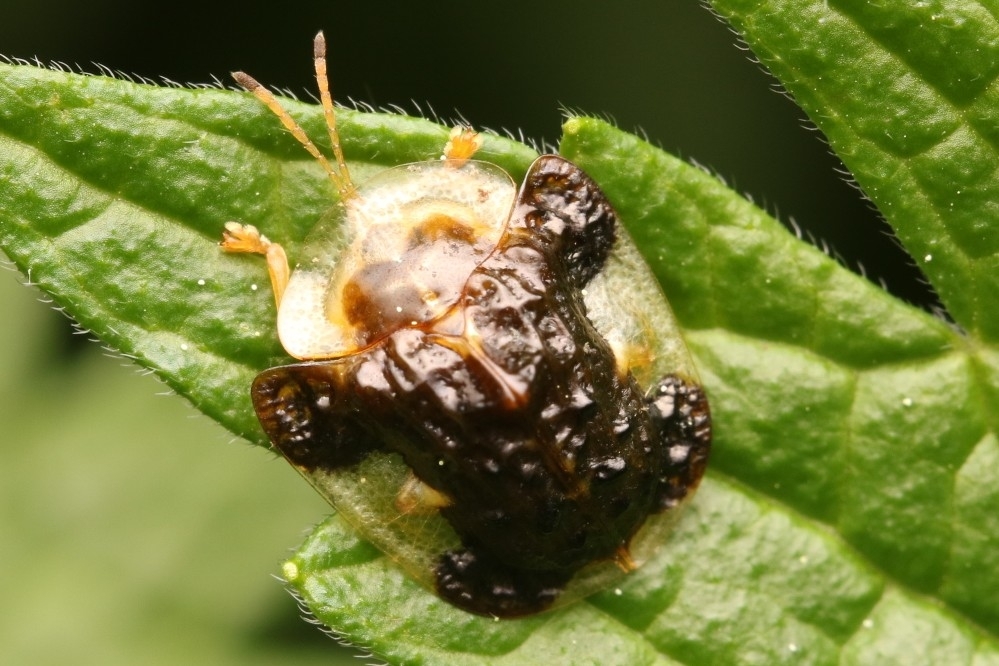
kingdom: Animalia
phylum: Arthropoda
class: Insecta
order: Coleoptera
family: Chrysomelidae
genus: Helocassis
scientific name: Helocassis clavata
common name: Clavate tortoise beetle
